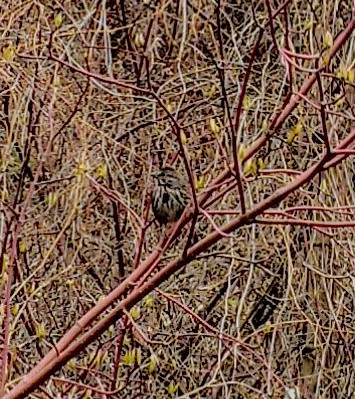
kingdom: Animalia
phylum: Chordata
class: Aves
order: Passeriformes
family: Passerellidae
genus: Melospiza
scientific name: Melospiza melodia
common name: Song sparrow
